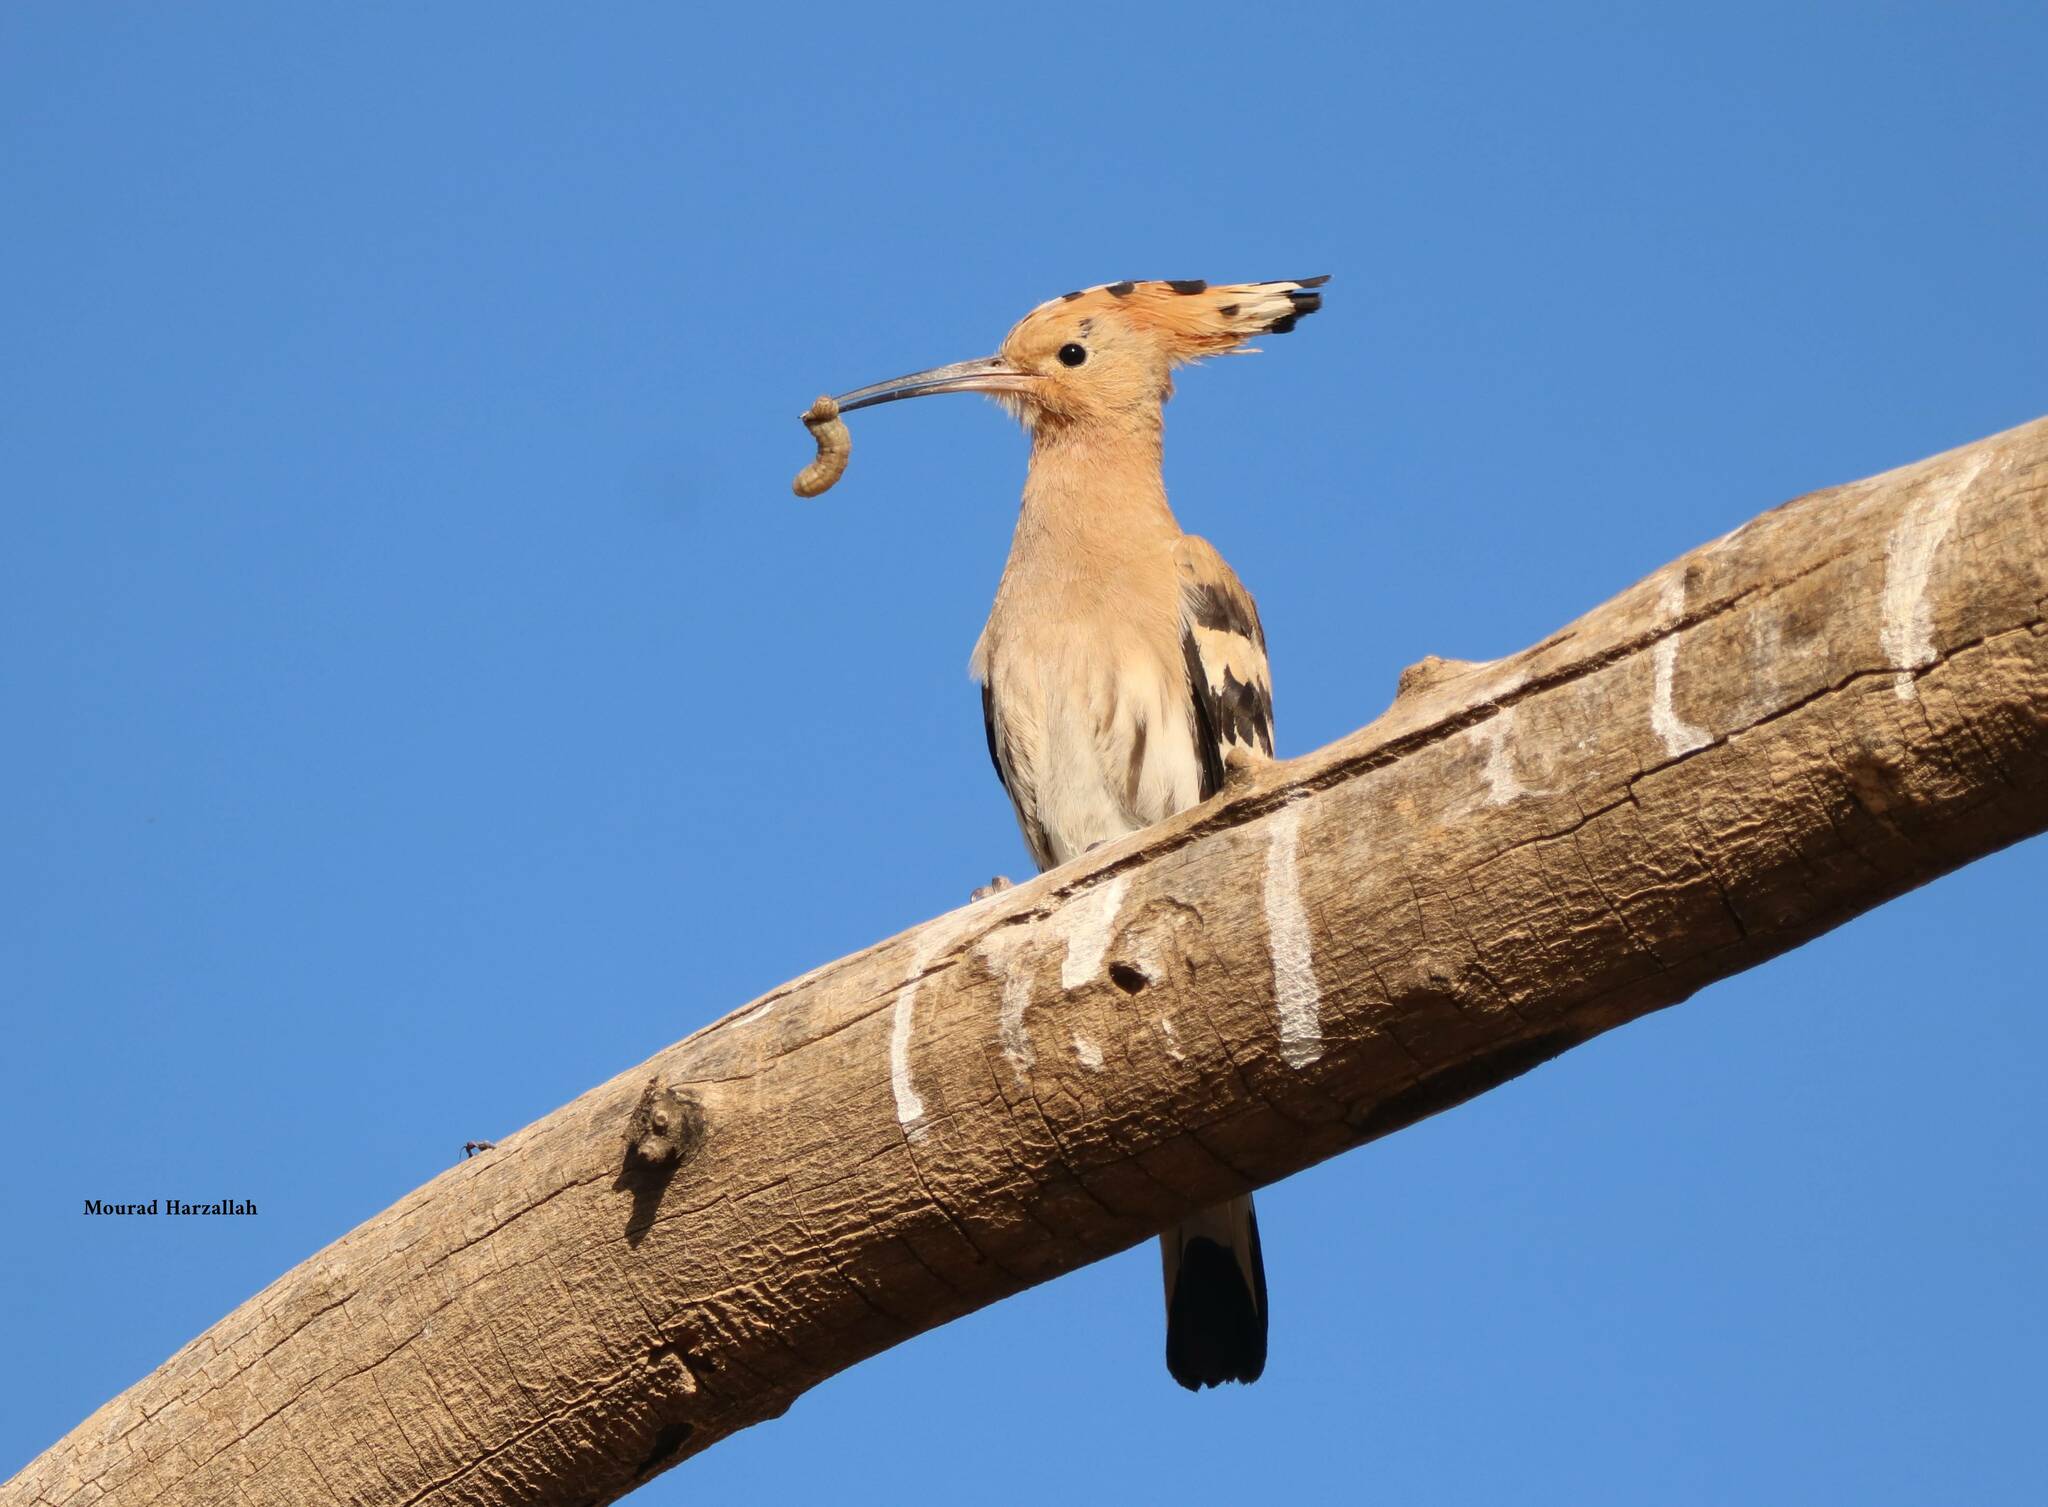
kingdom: Animalia
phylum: Chordata
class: Aves
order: Bucerotiformes
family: Upupidae
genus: Upupa
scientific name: Upupa epops
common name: Eurasian hoopoe
